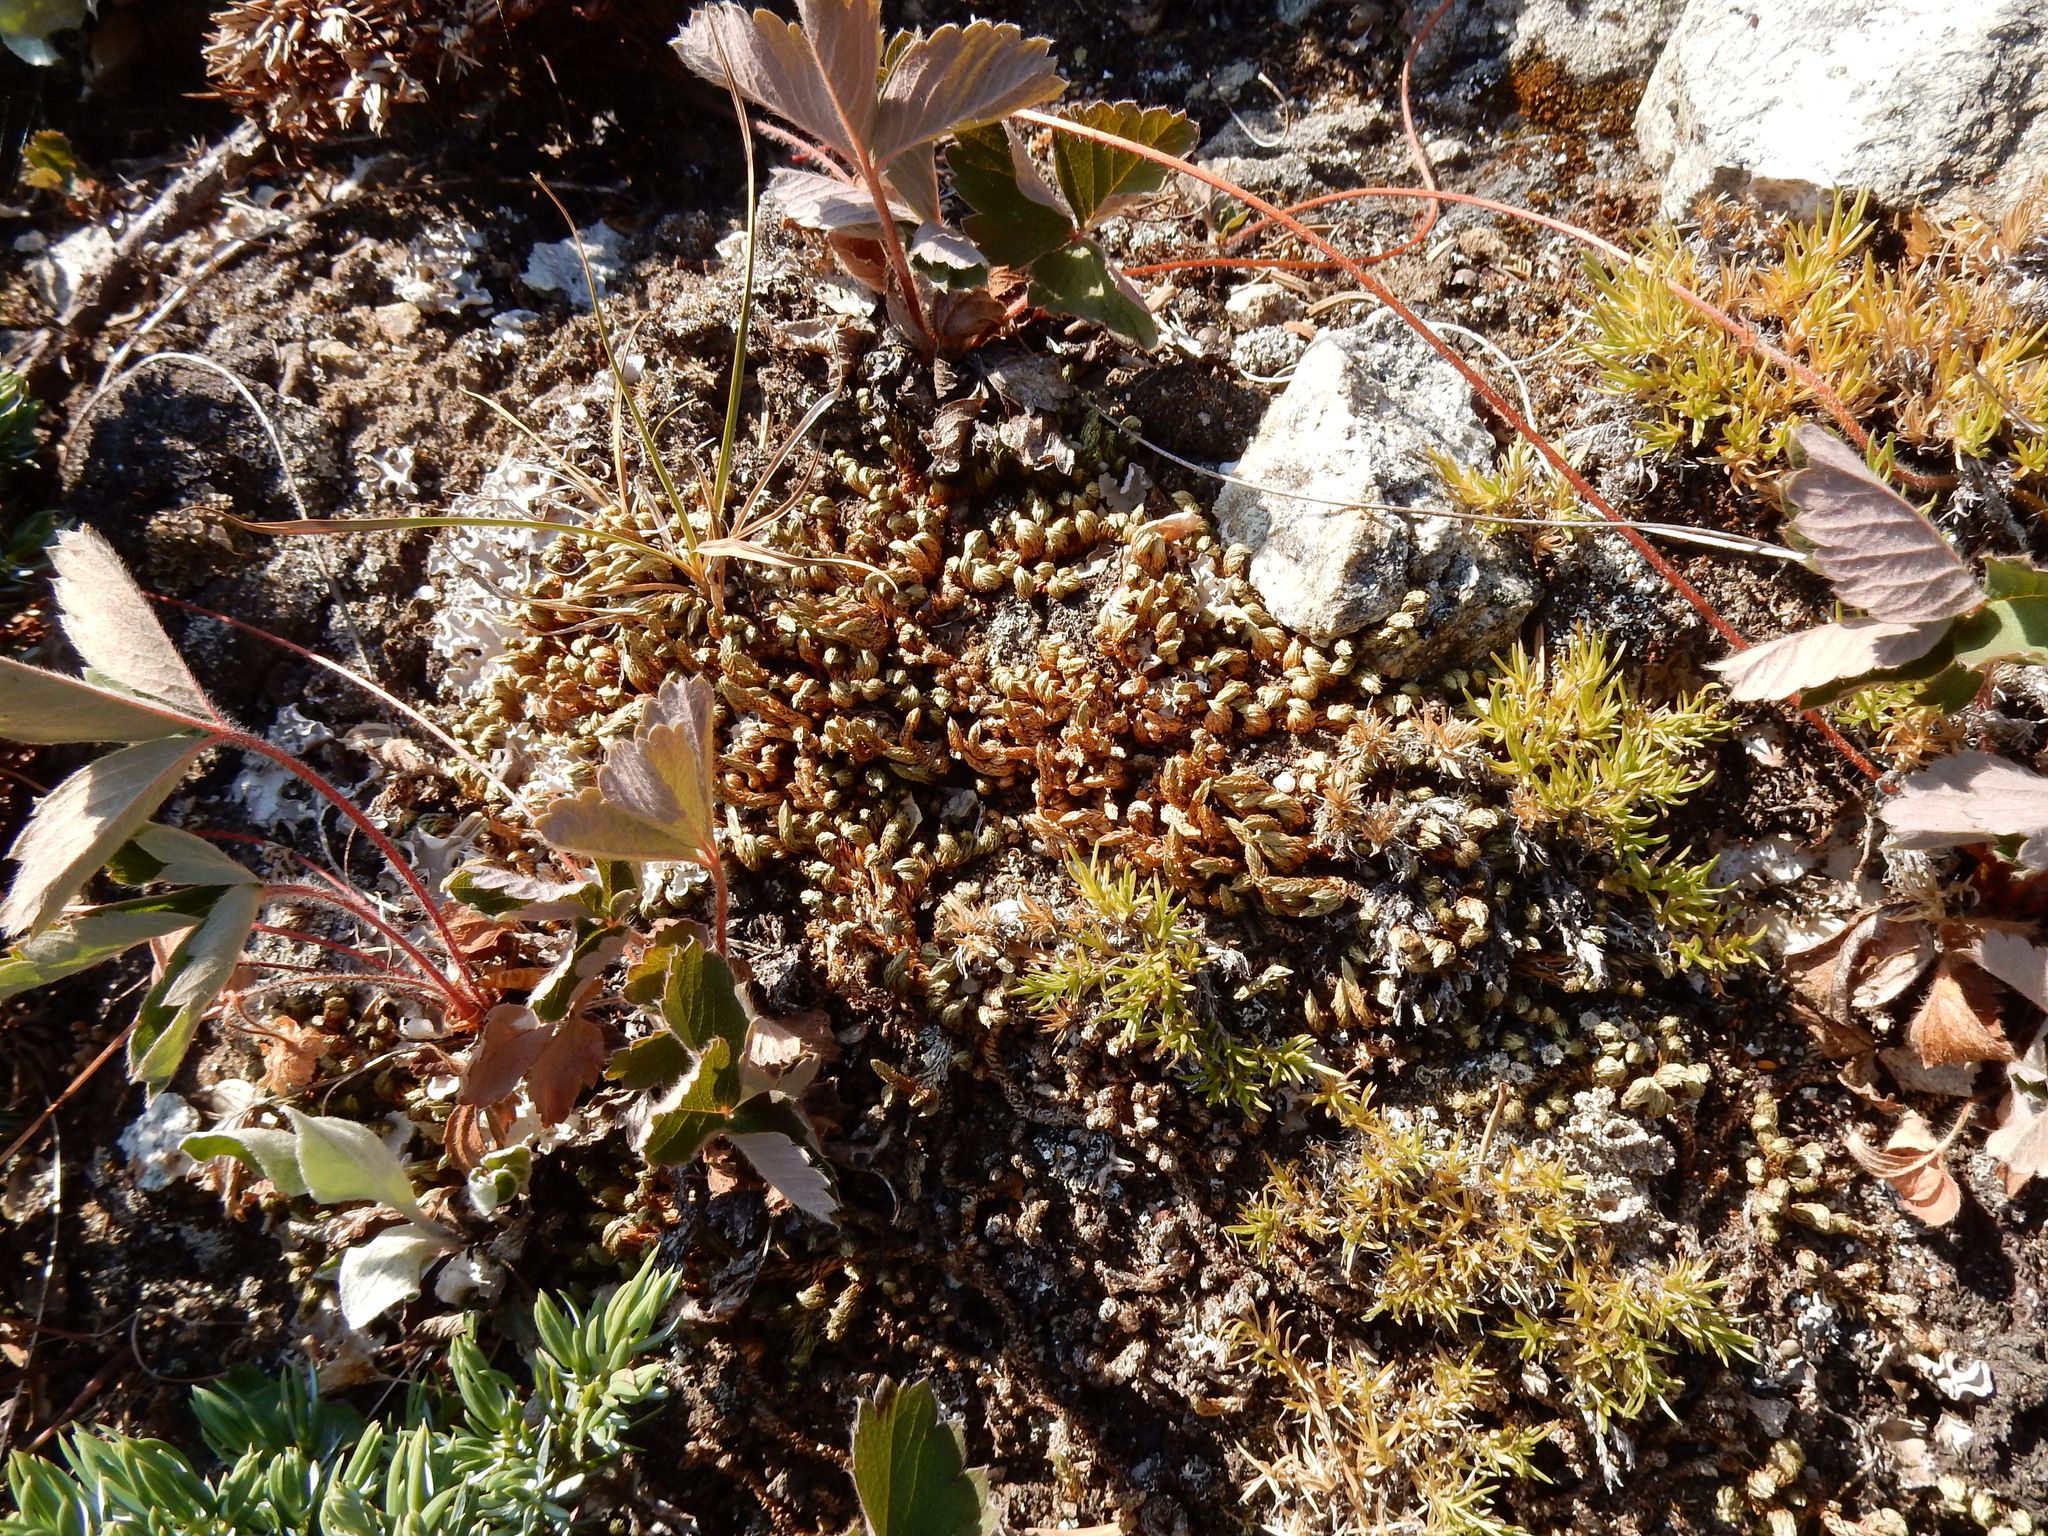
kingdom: Plantae
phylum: Tracheophyta
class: Lycopodiopsida
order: Selaginellales
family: Selaginellaceae
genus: Selaginella
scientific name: Selaginella densa
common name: Mountain spike-moss
